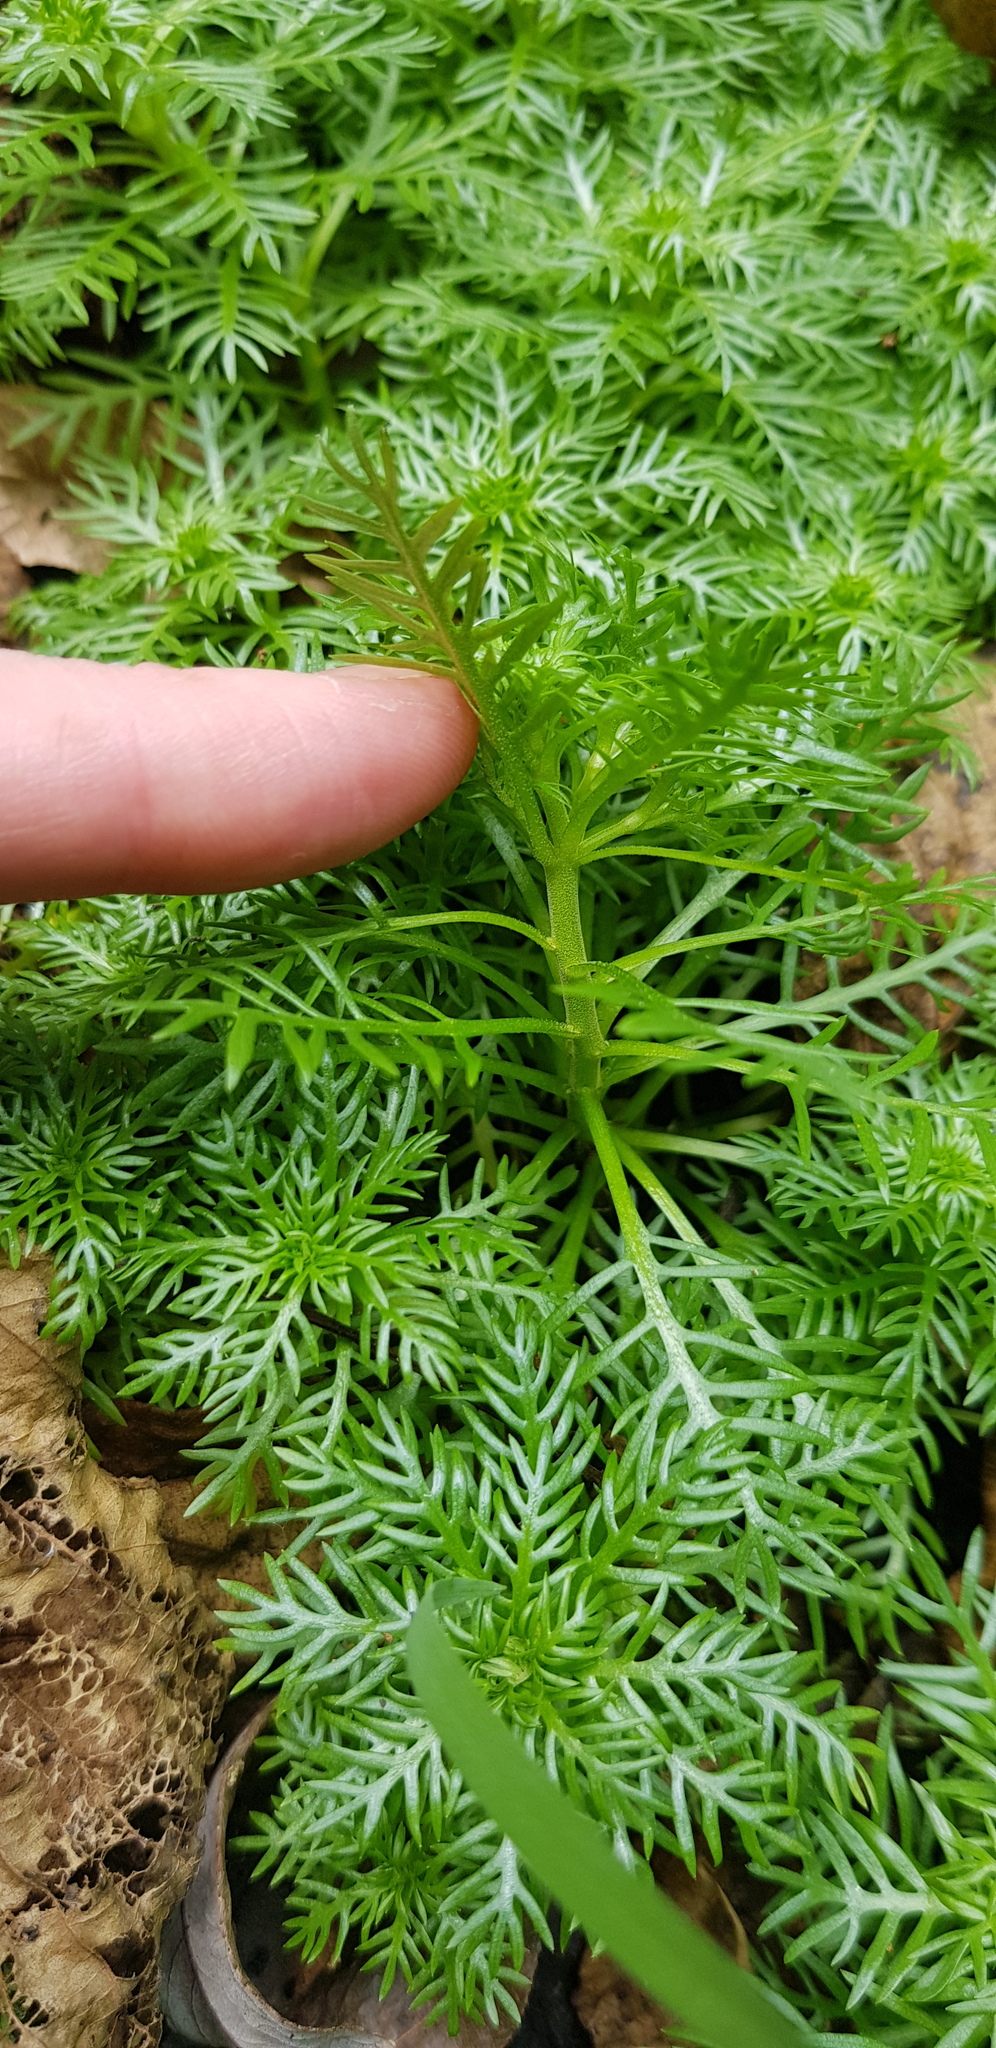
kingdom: Plantae
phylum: Tracheophyta
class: Magnoliopsida
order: Ericales
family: Primulaceae
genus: Hottonia
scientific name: Hottonia palustris
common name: Water-violet
